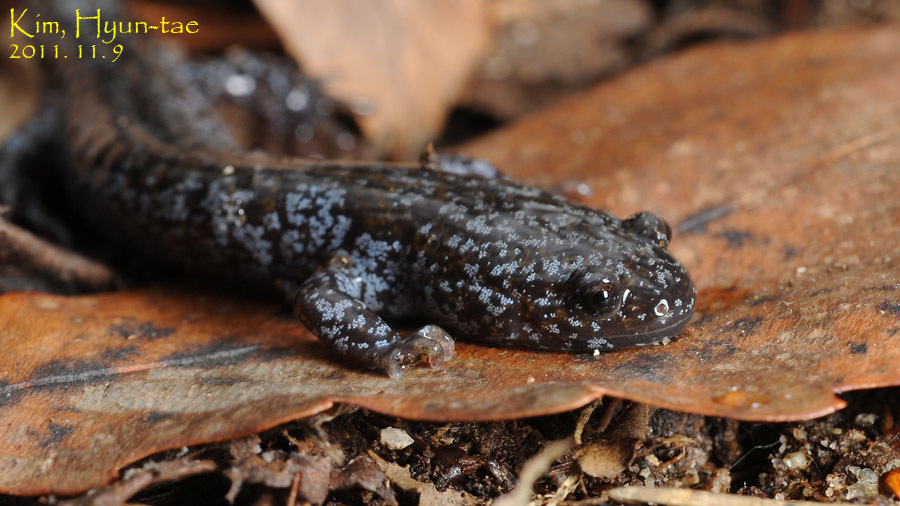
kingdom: Animalia
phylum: Chordata
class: Amphibia
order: Caudata
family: Hynobiidae
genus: Hynobius
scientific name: Hynobius leechii
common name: Gensan salamander
